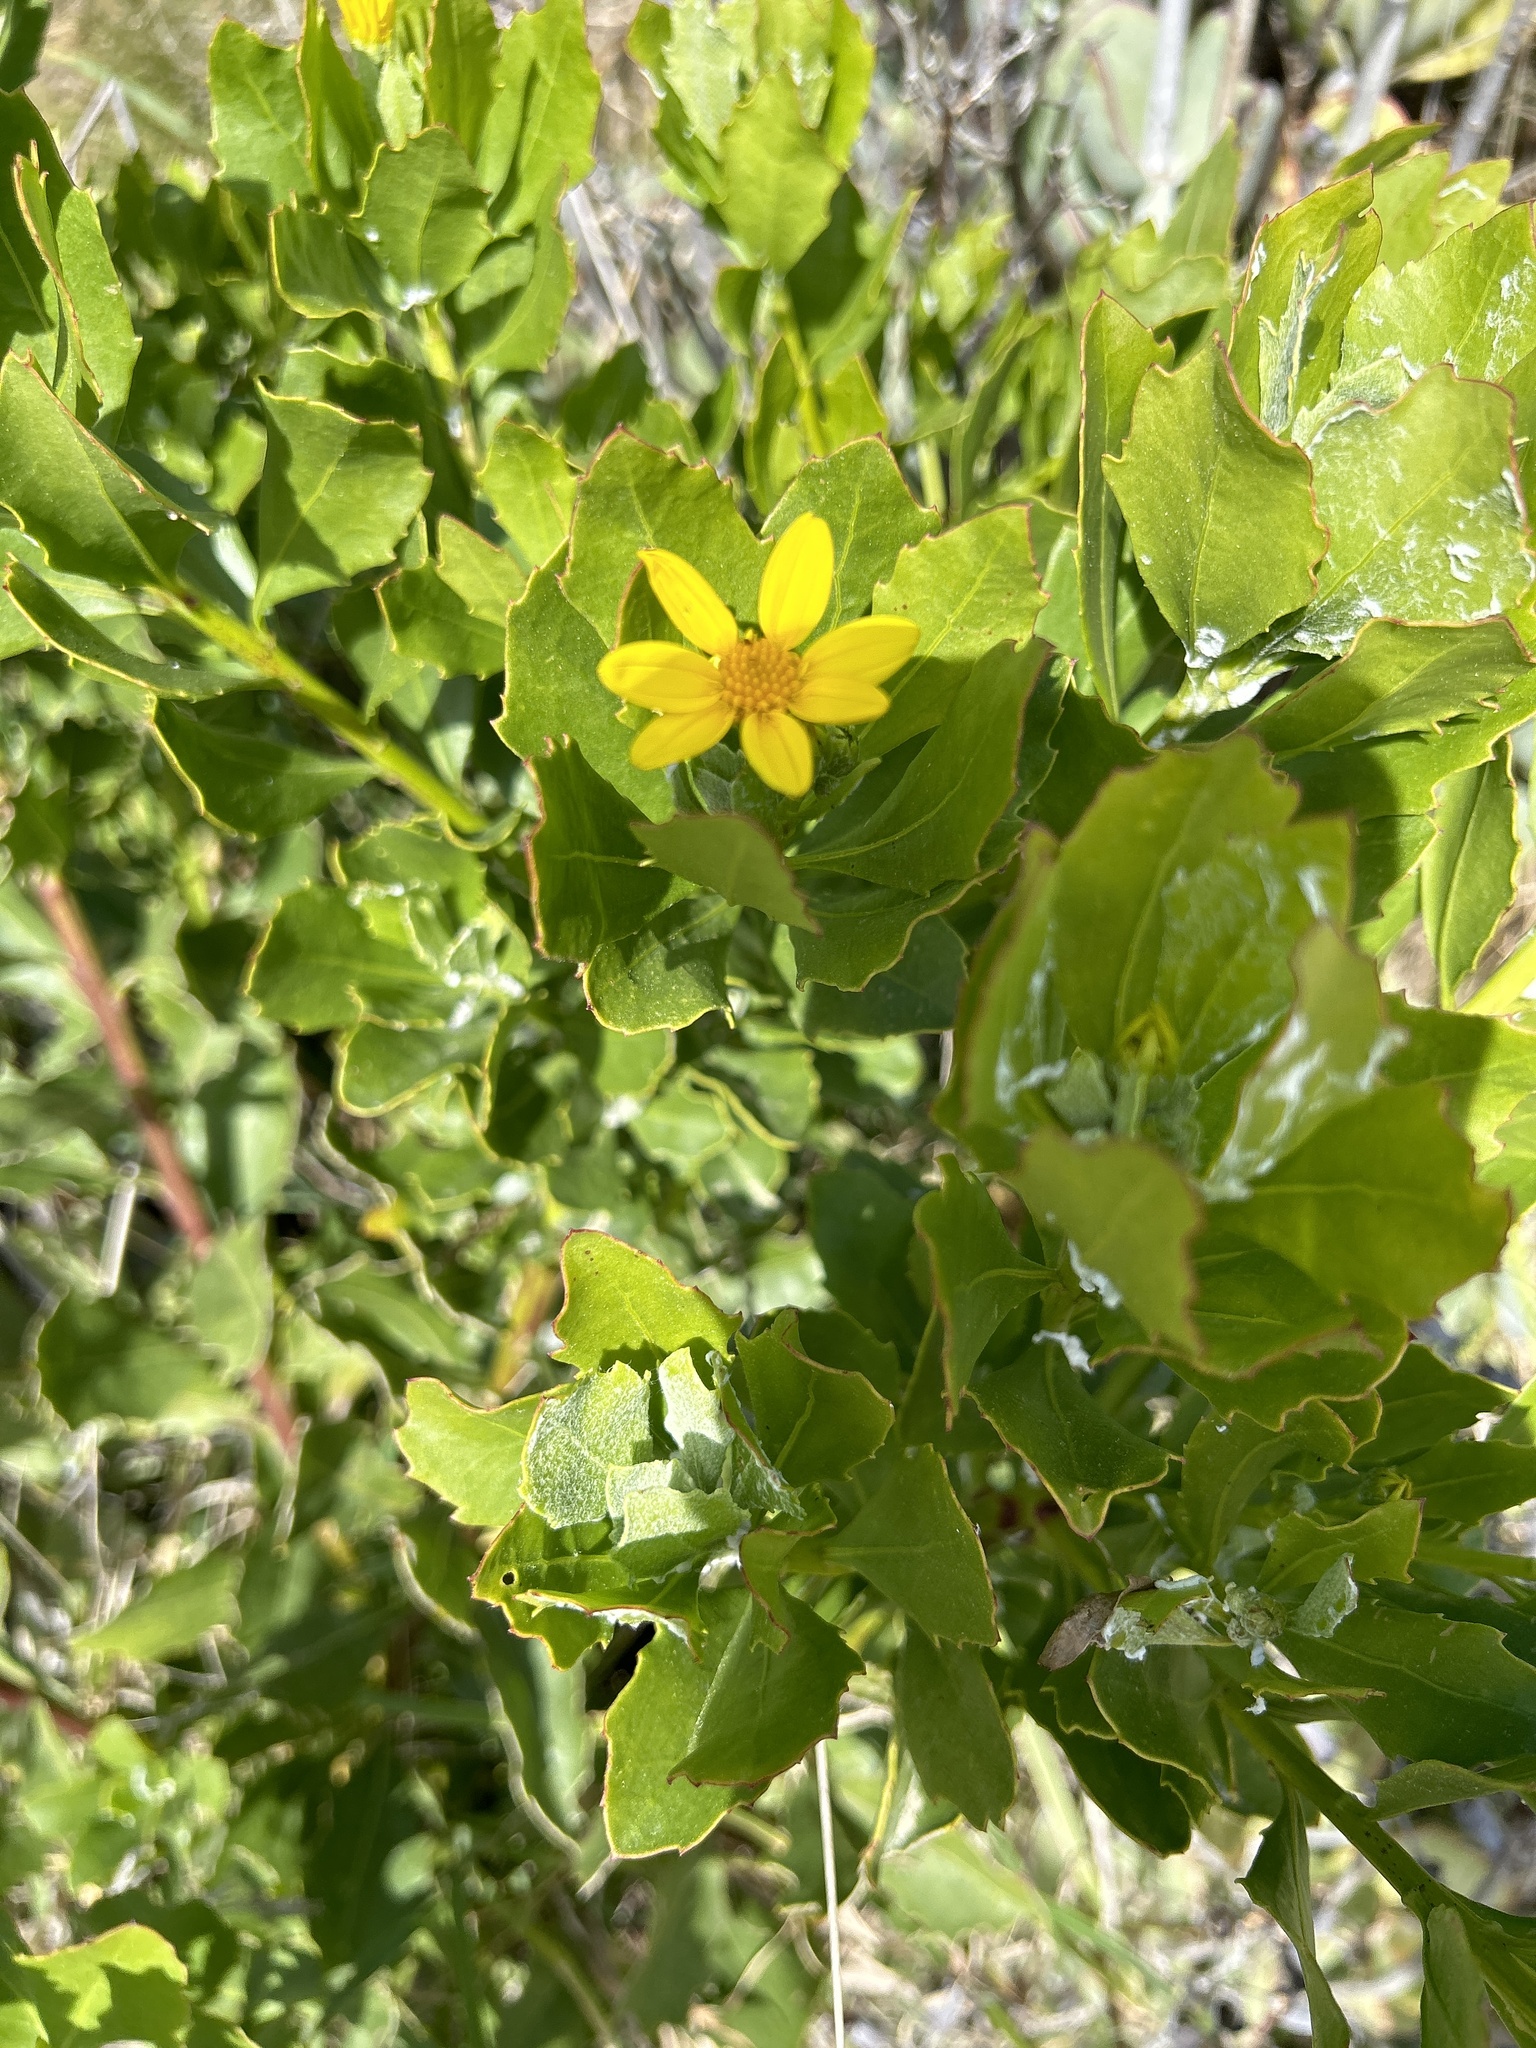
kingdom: Plantae
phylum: Tracheophyta
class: Magnoliopsida
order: Asterales
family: Asteraceae
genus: Osteospermum
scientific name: Osteospermum moniliferum
